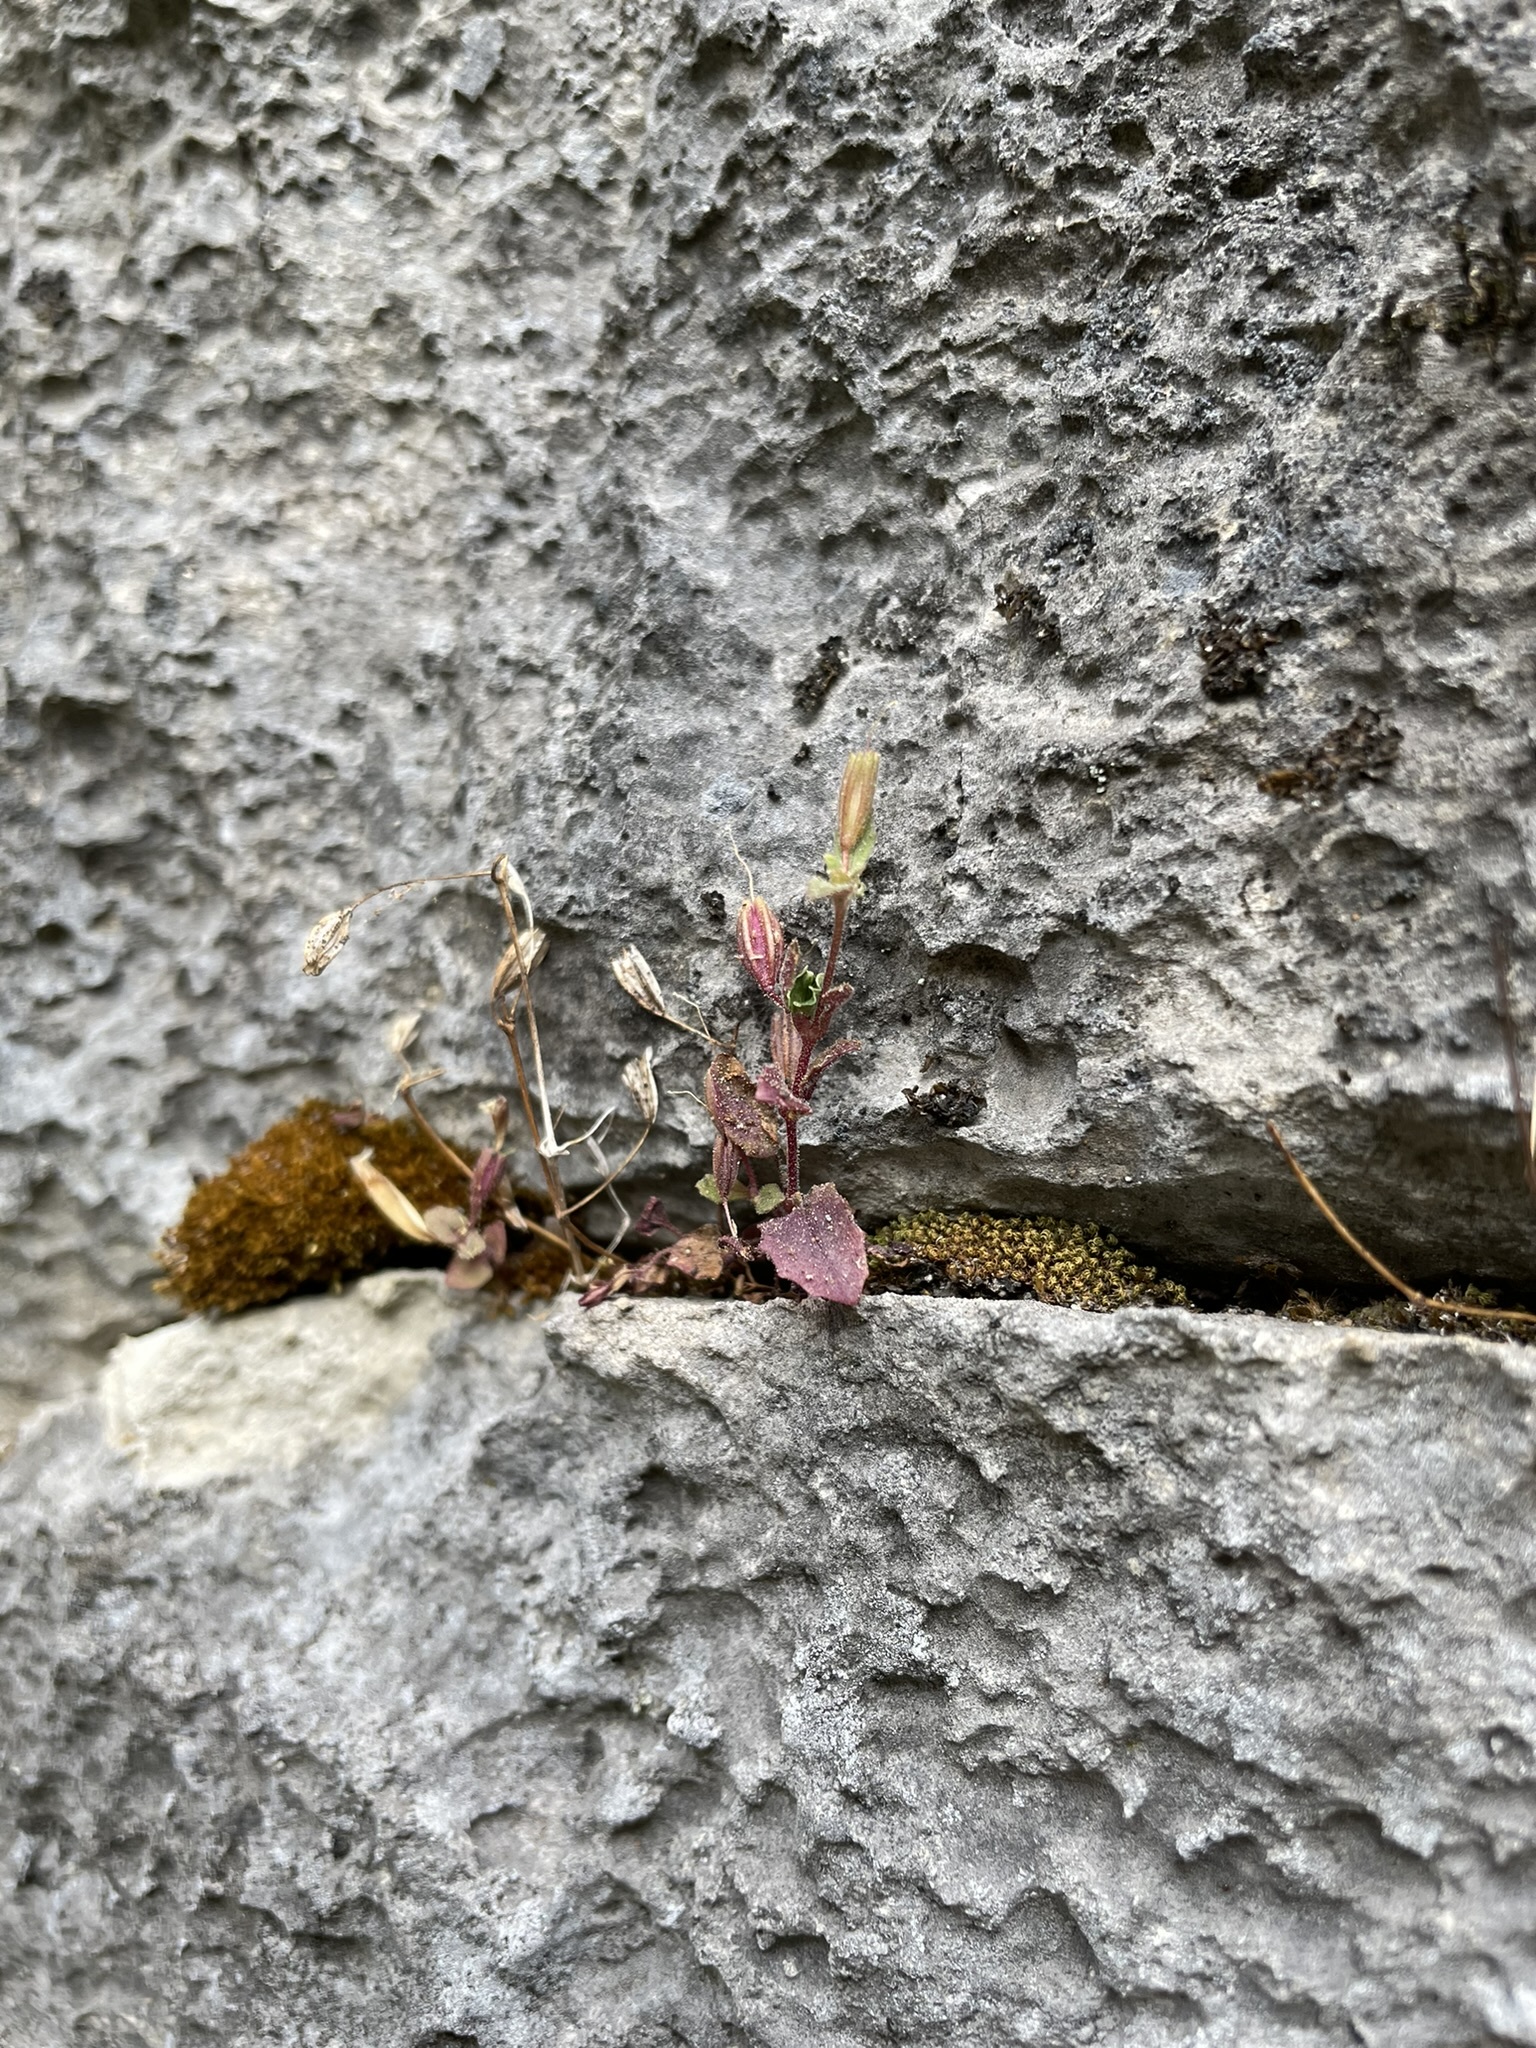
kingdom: Plantae
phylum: Tracheophyta
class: Magnoliopsida
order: Lamiales
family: Phrymaceae
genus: Erythranthe
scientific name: Erythranthe taylorii
